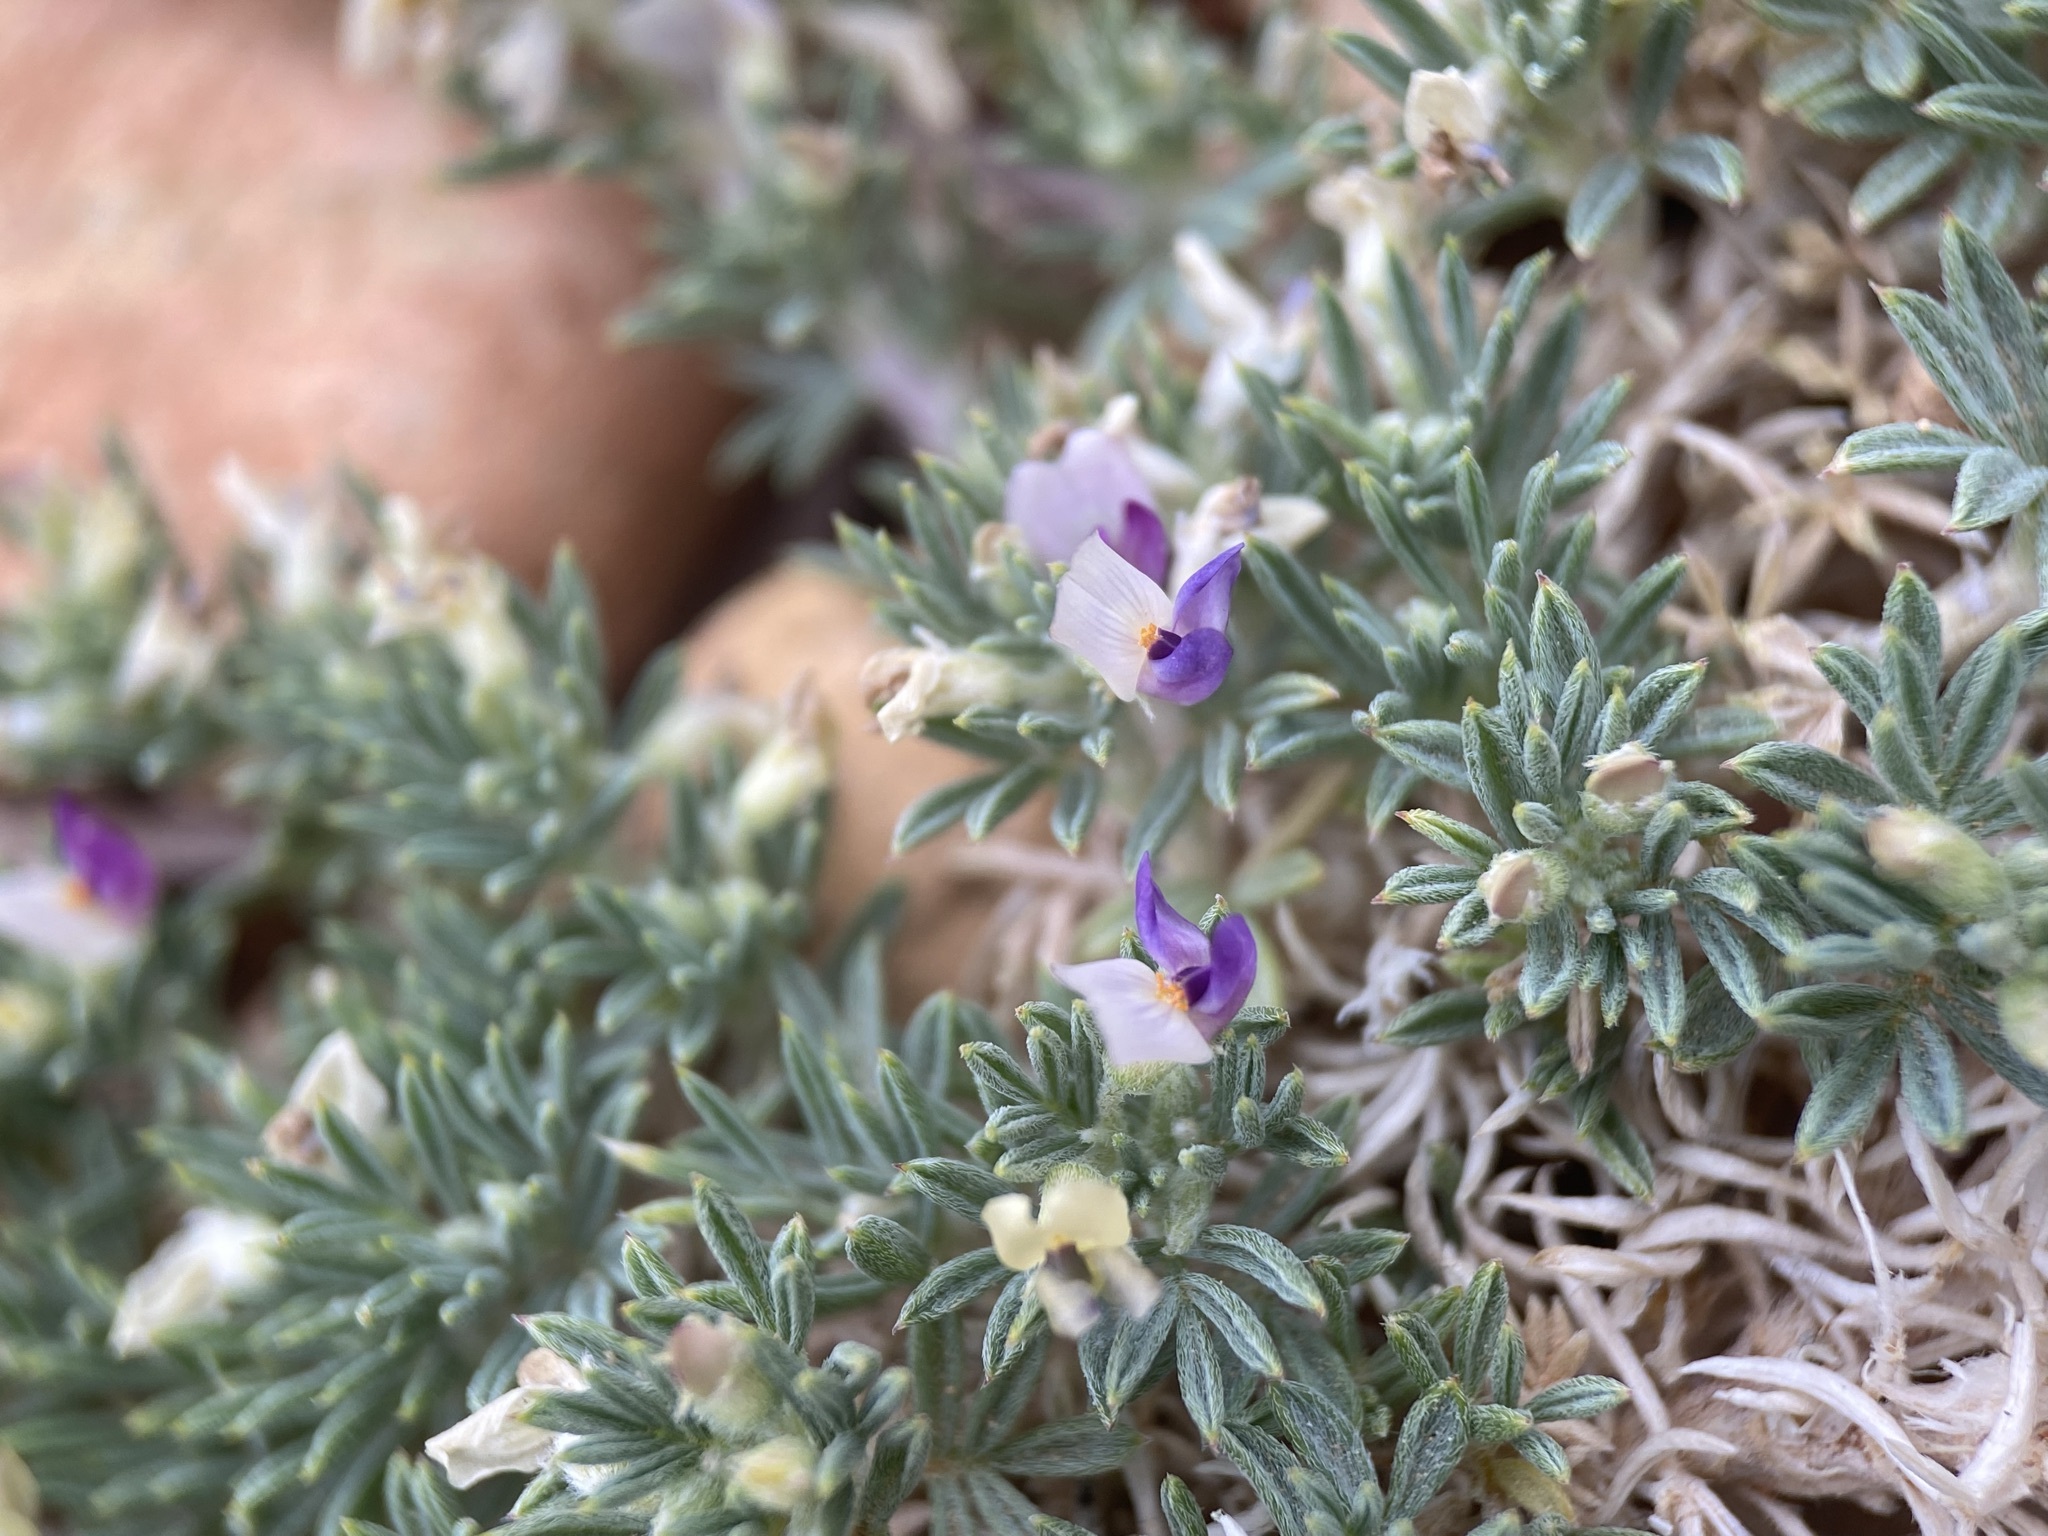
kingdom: Plantae
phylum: Tracheophyta
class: Magnoliopsida
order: Fabales
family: Fabaceae
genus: Astragalus
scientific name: Astragalus kentrophyta
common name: Prickly milk-vetch
